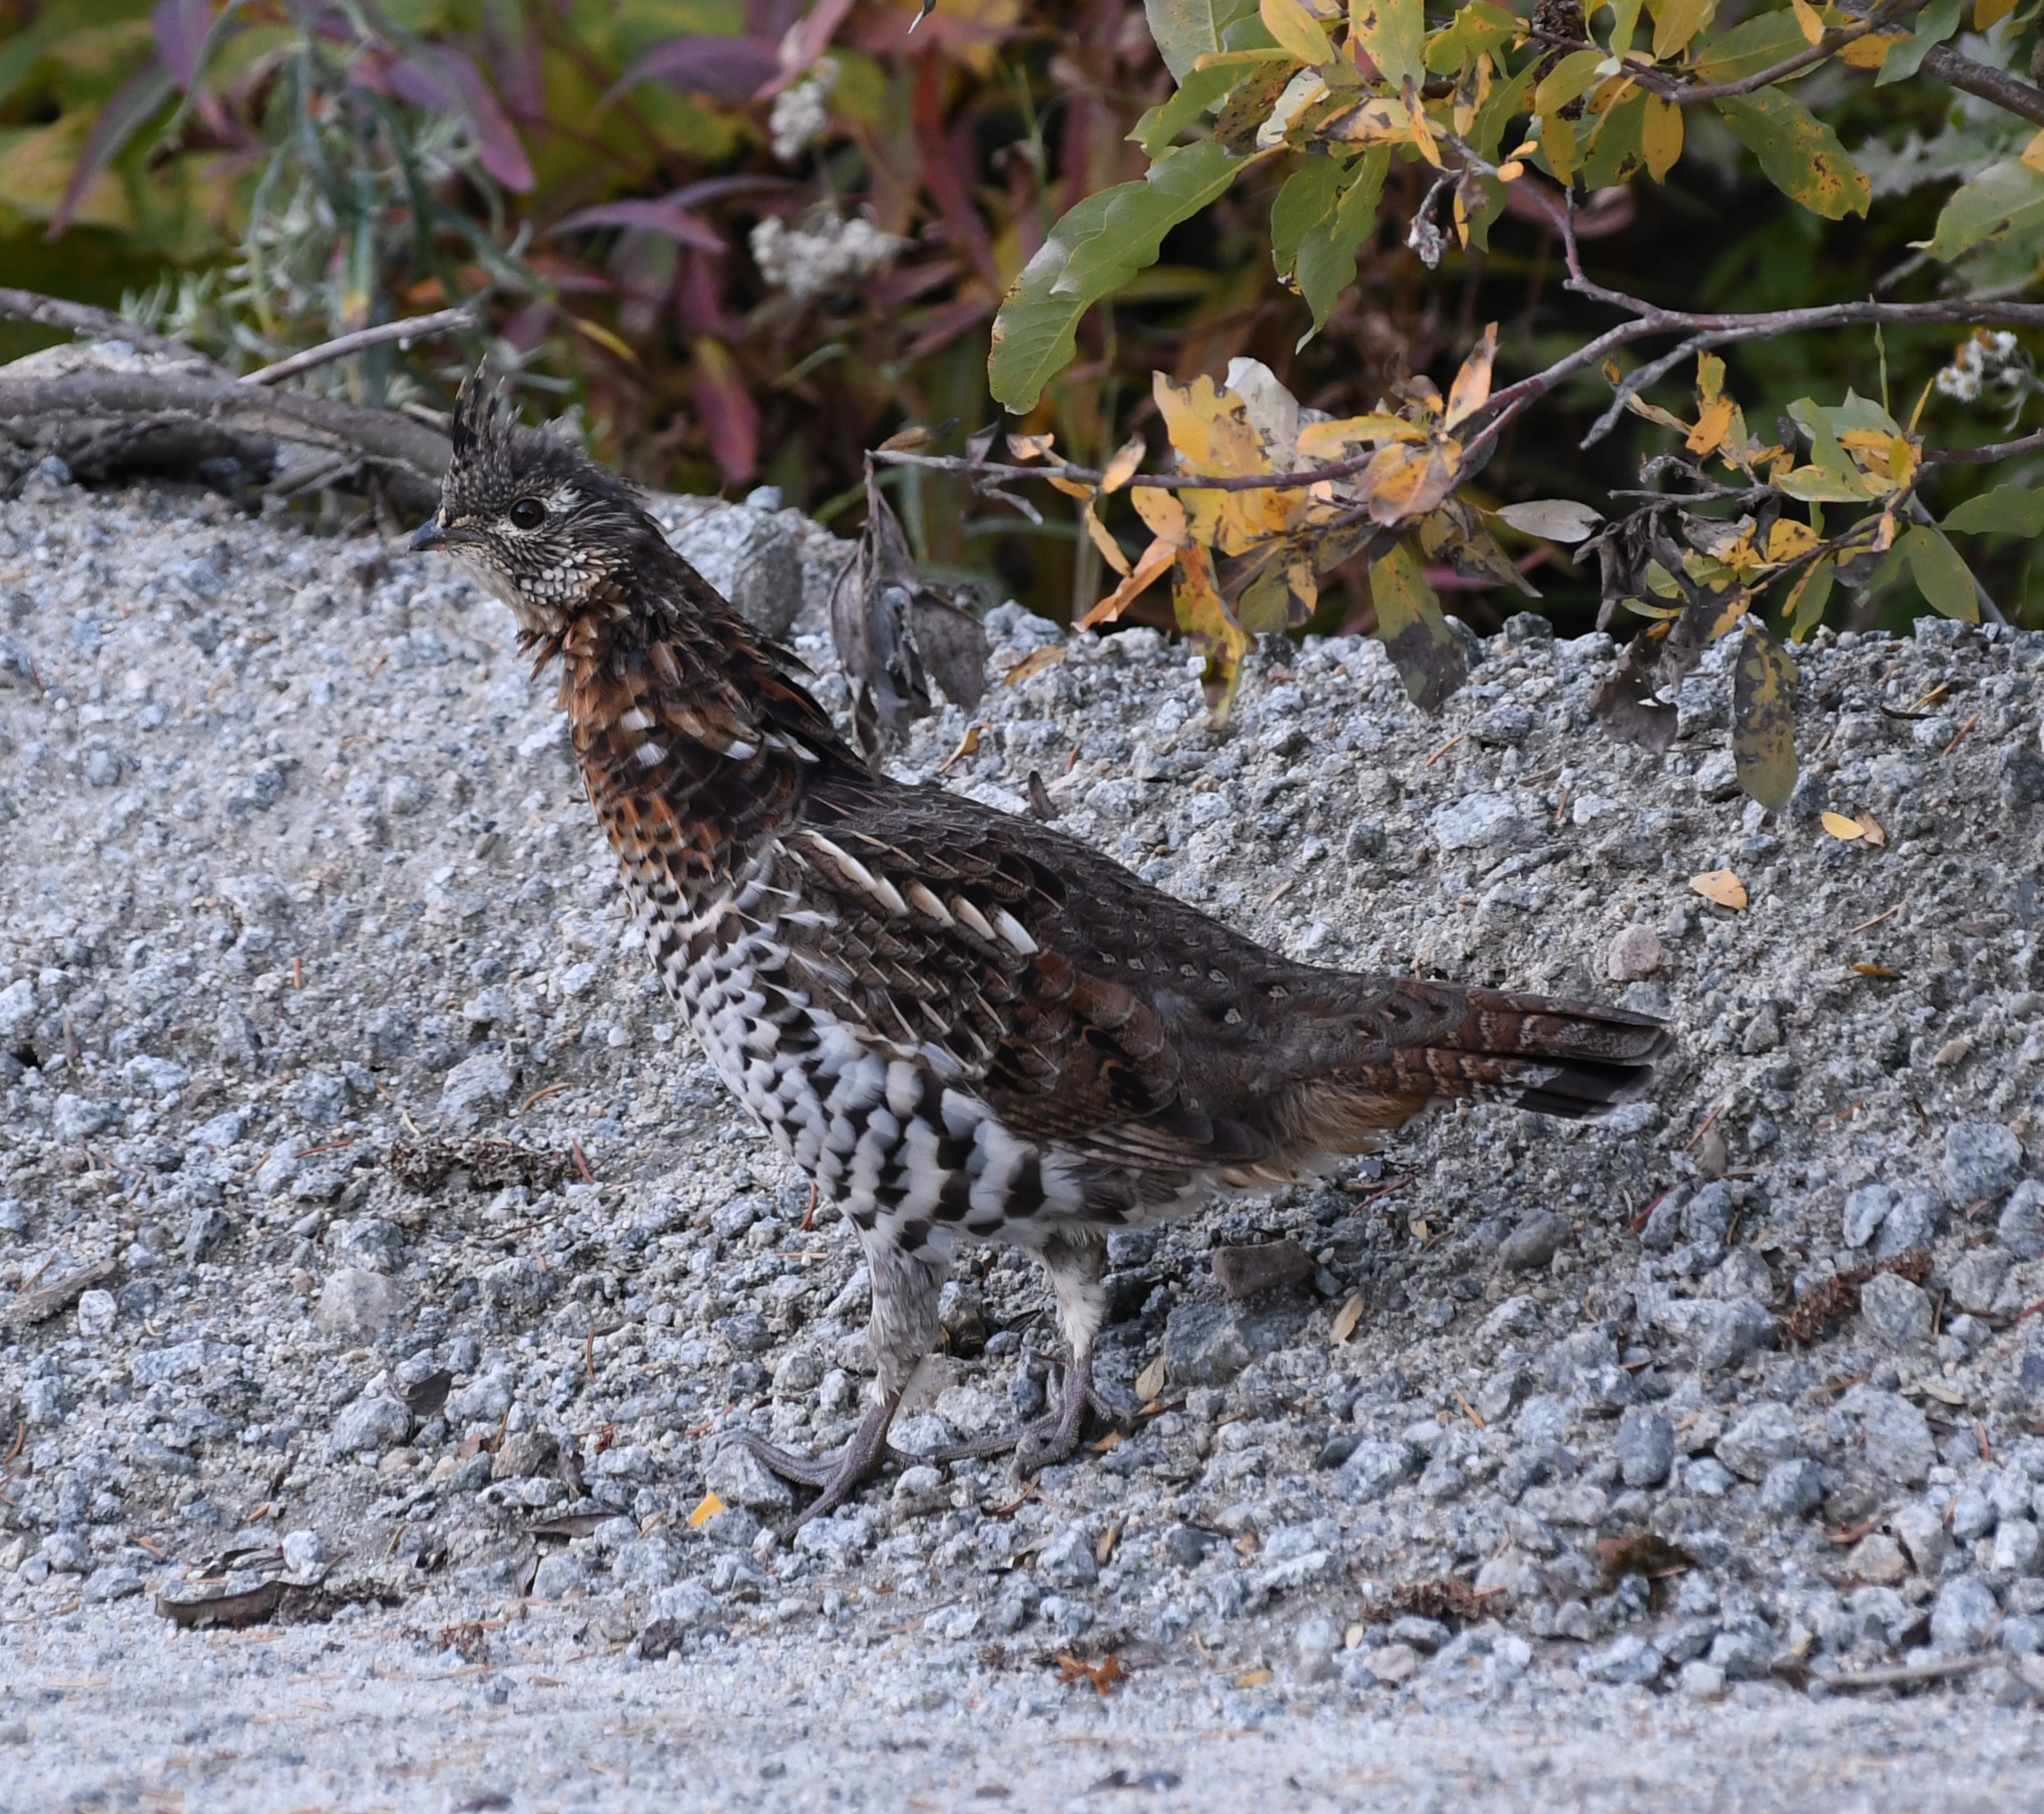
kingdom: Animalia
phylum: Chordata
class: Aves
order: Galliformes
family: Phasianidae
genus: Bonasa
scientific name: Bonasa umbellus
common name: Ruffed grouse
